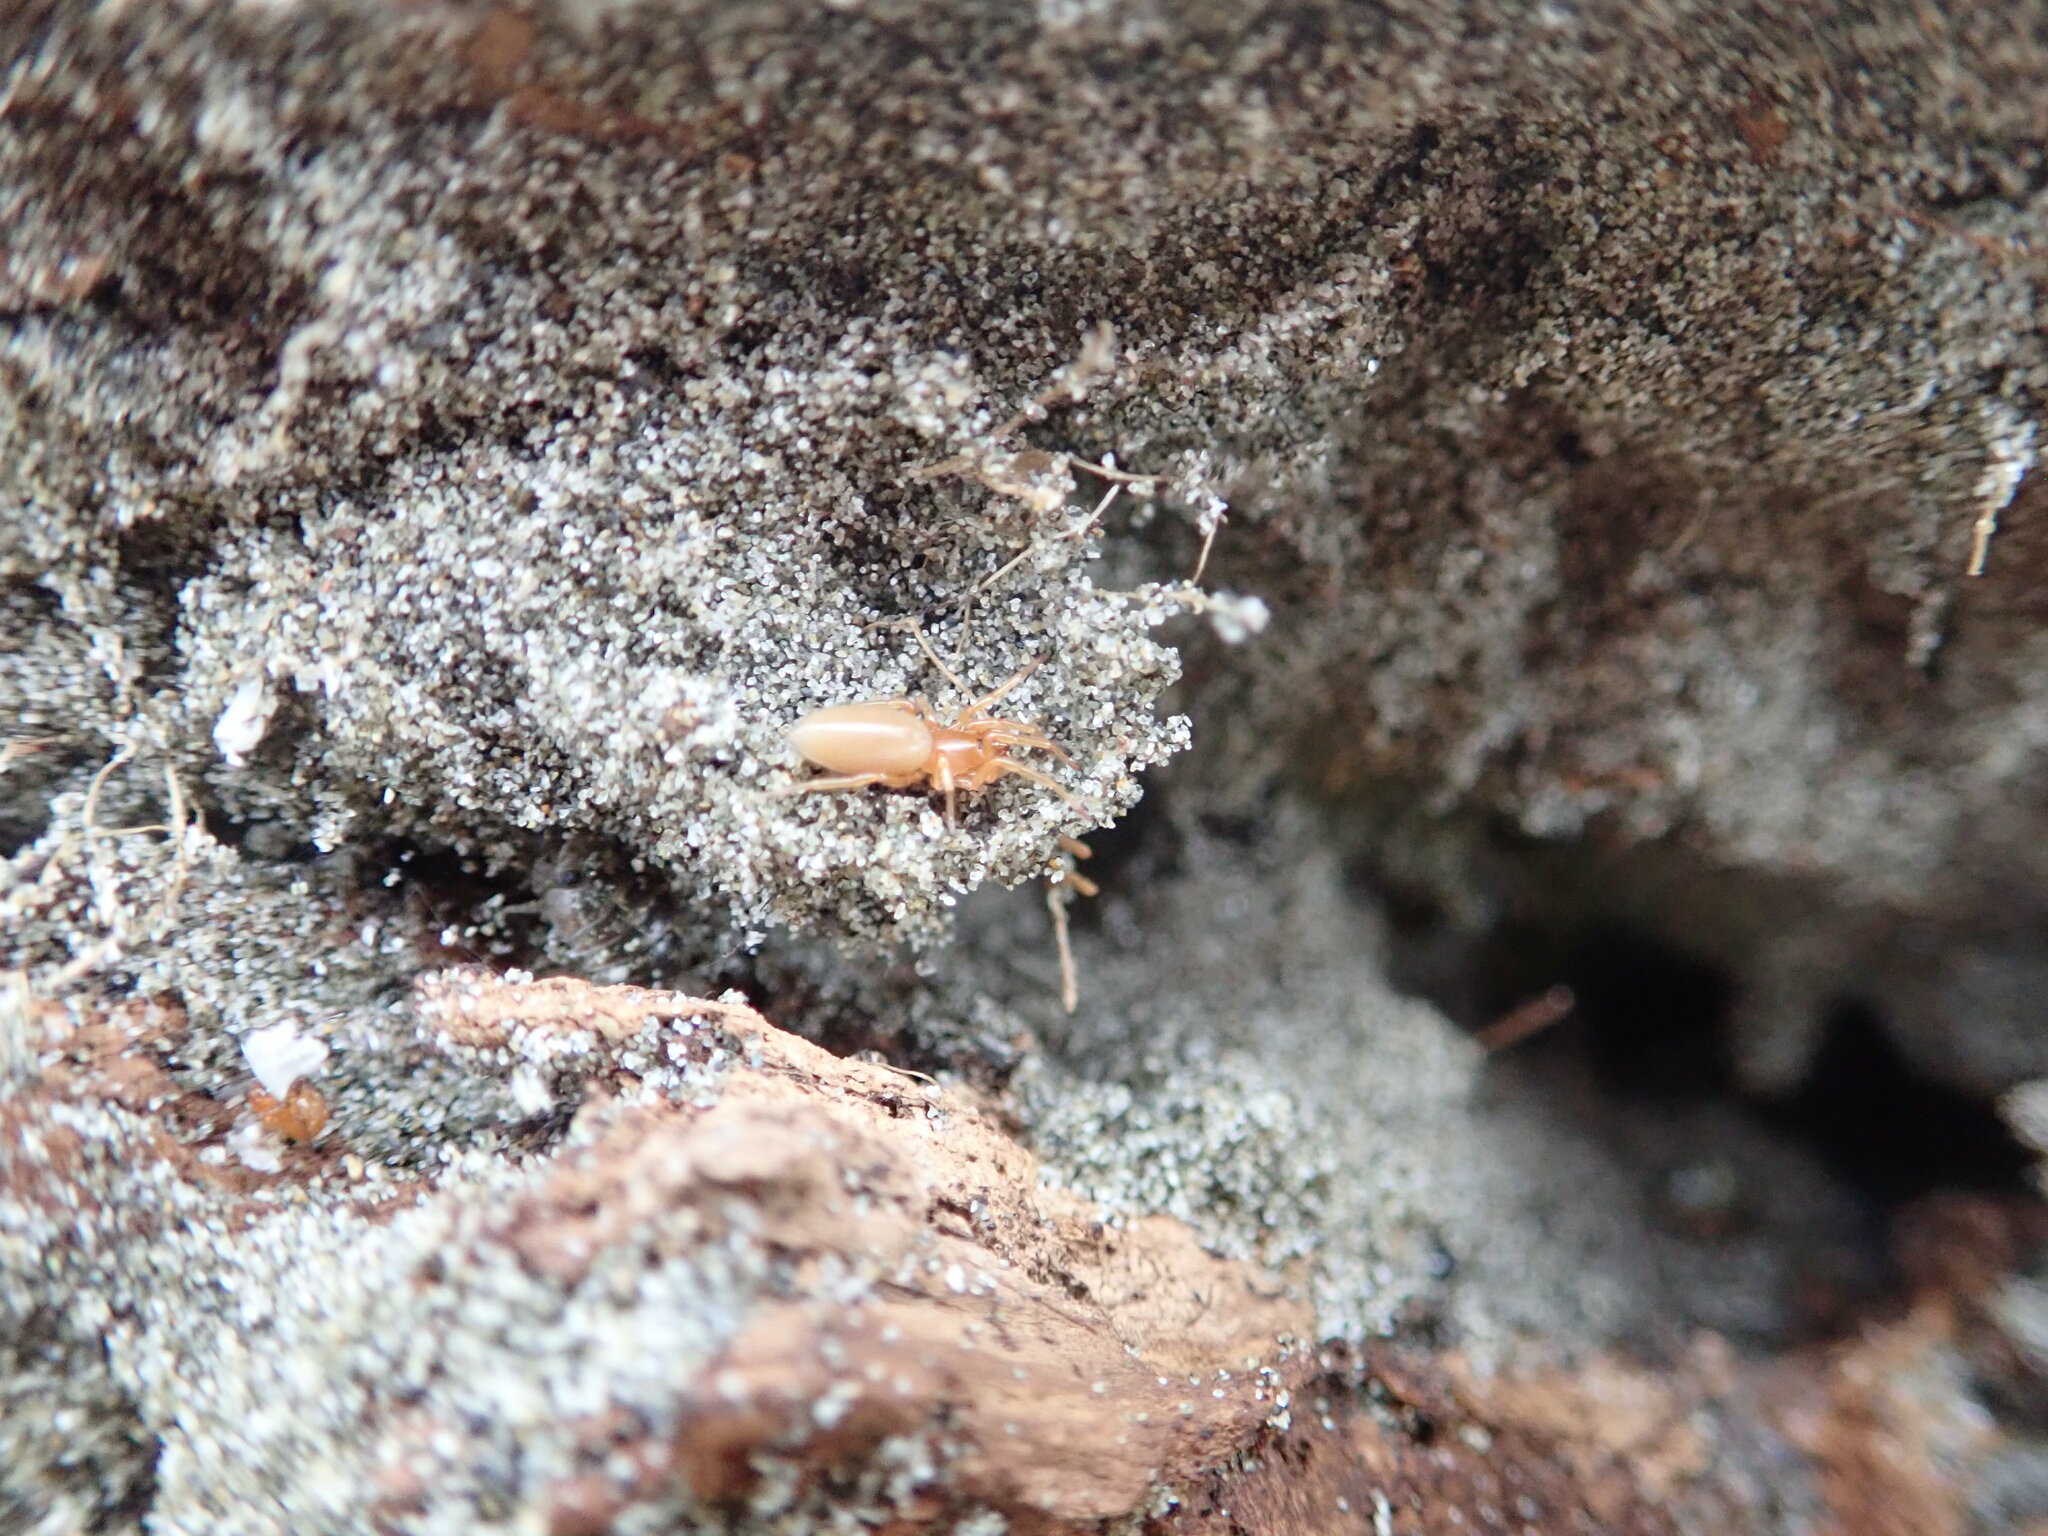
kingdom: Animalia
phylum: Arthropoda
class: Arachnida
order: Araneae
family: Dysderidae
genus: Dysdera
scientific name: Dysdera crocata
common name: Woodlouse spider
